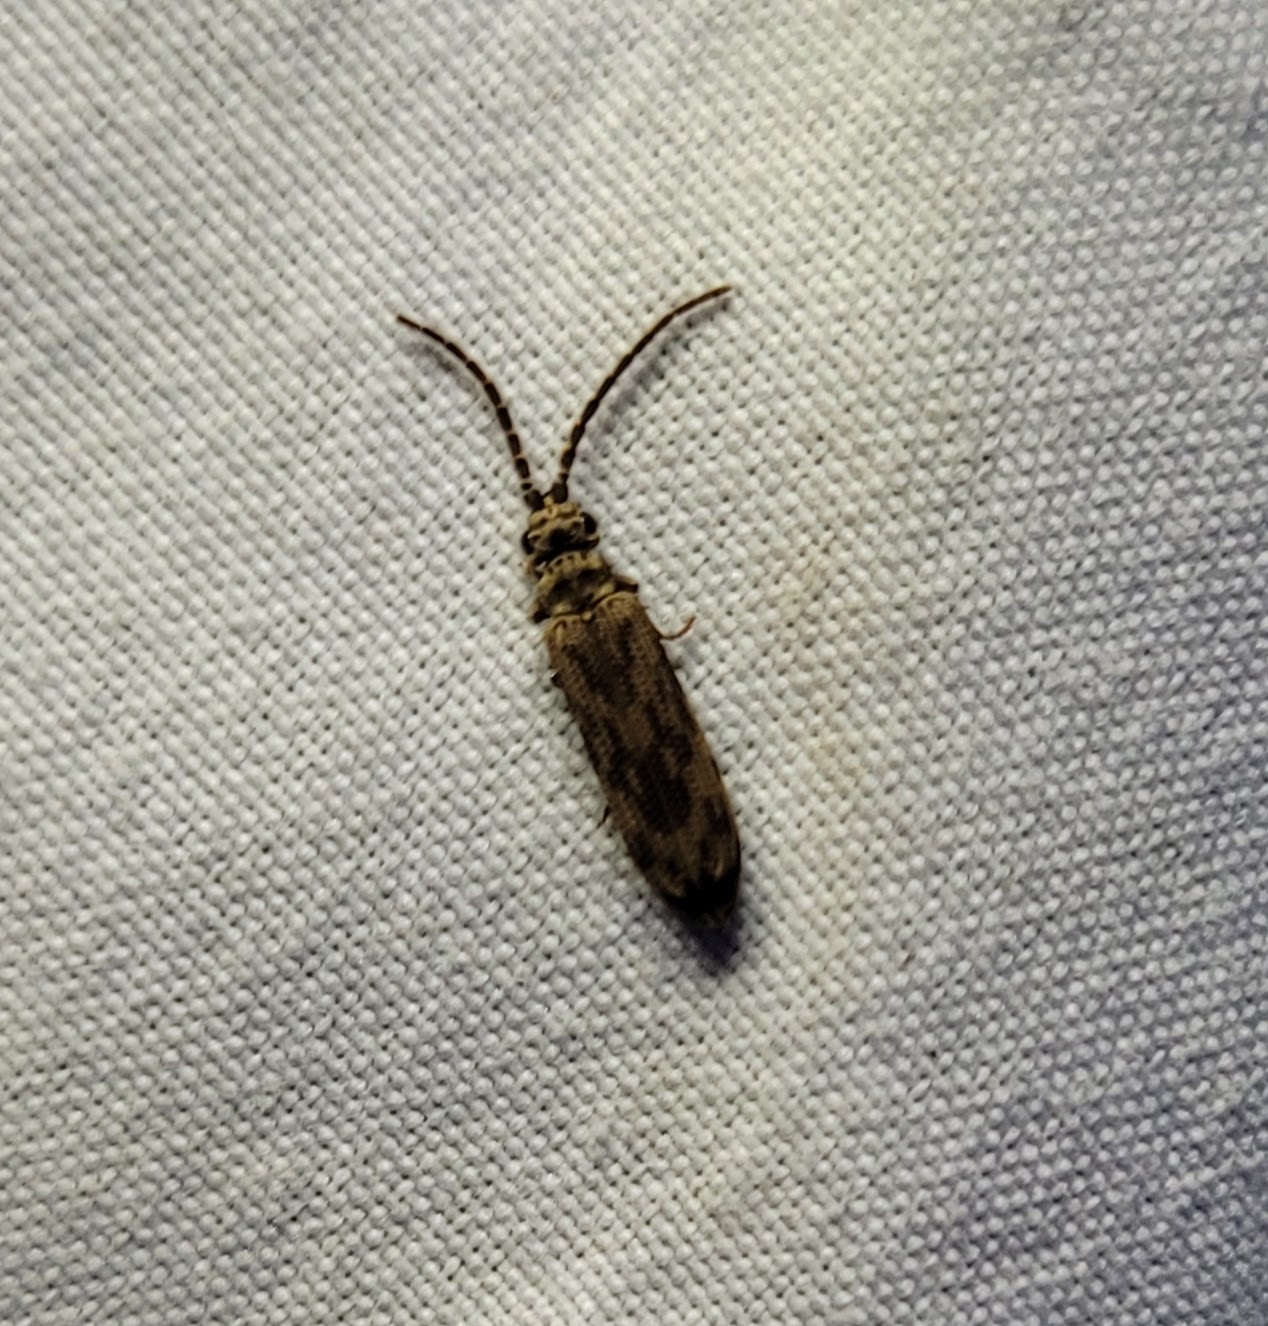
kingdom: Animalia
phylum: Arthropoda
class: Insecta
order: Coleoptera
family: Cupedidae
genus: Tenomerga
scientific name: Tenomerga cinerea
